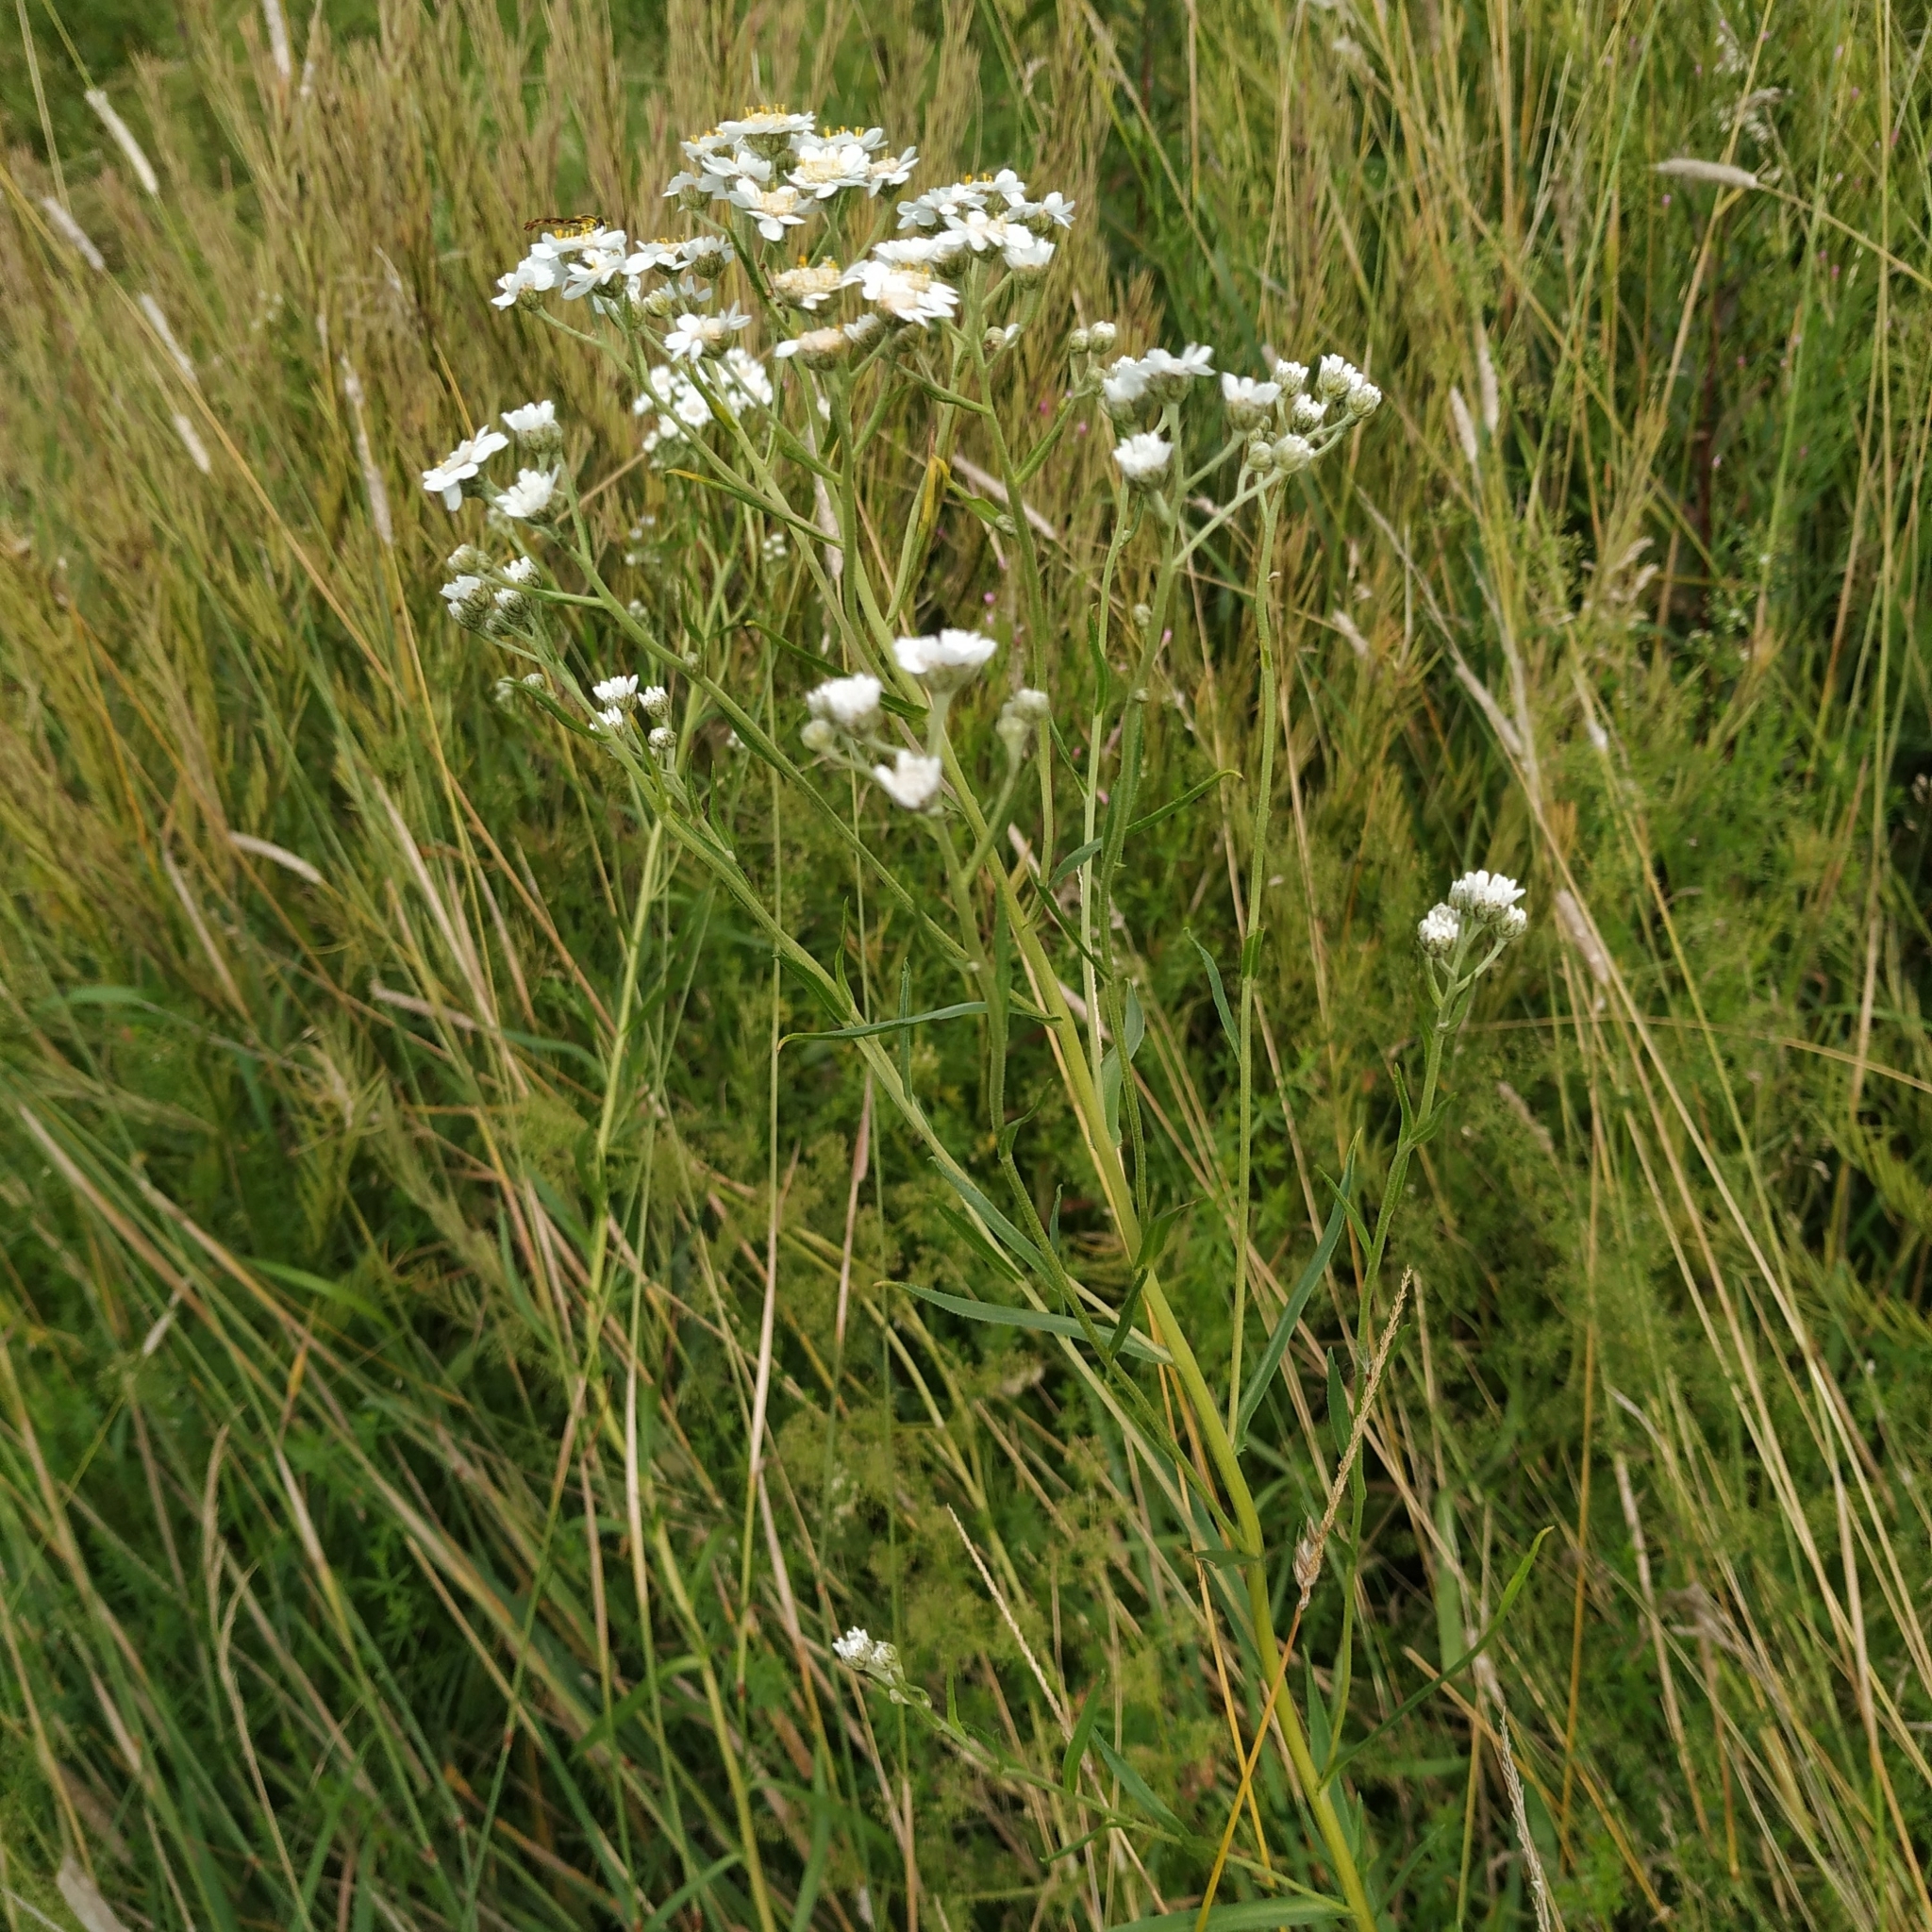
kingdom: Plantae
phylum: Tracheophyta
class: Magnoliopsida
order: Asterales
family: Asteraceae
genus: Achillea
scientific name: Achillea ptarmica
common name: Sneezeweed
